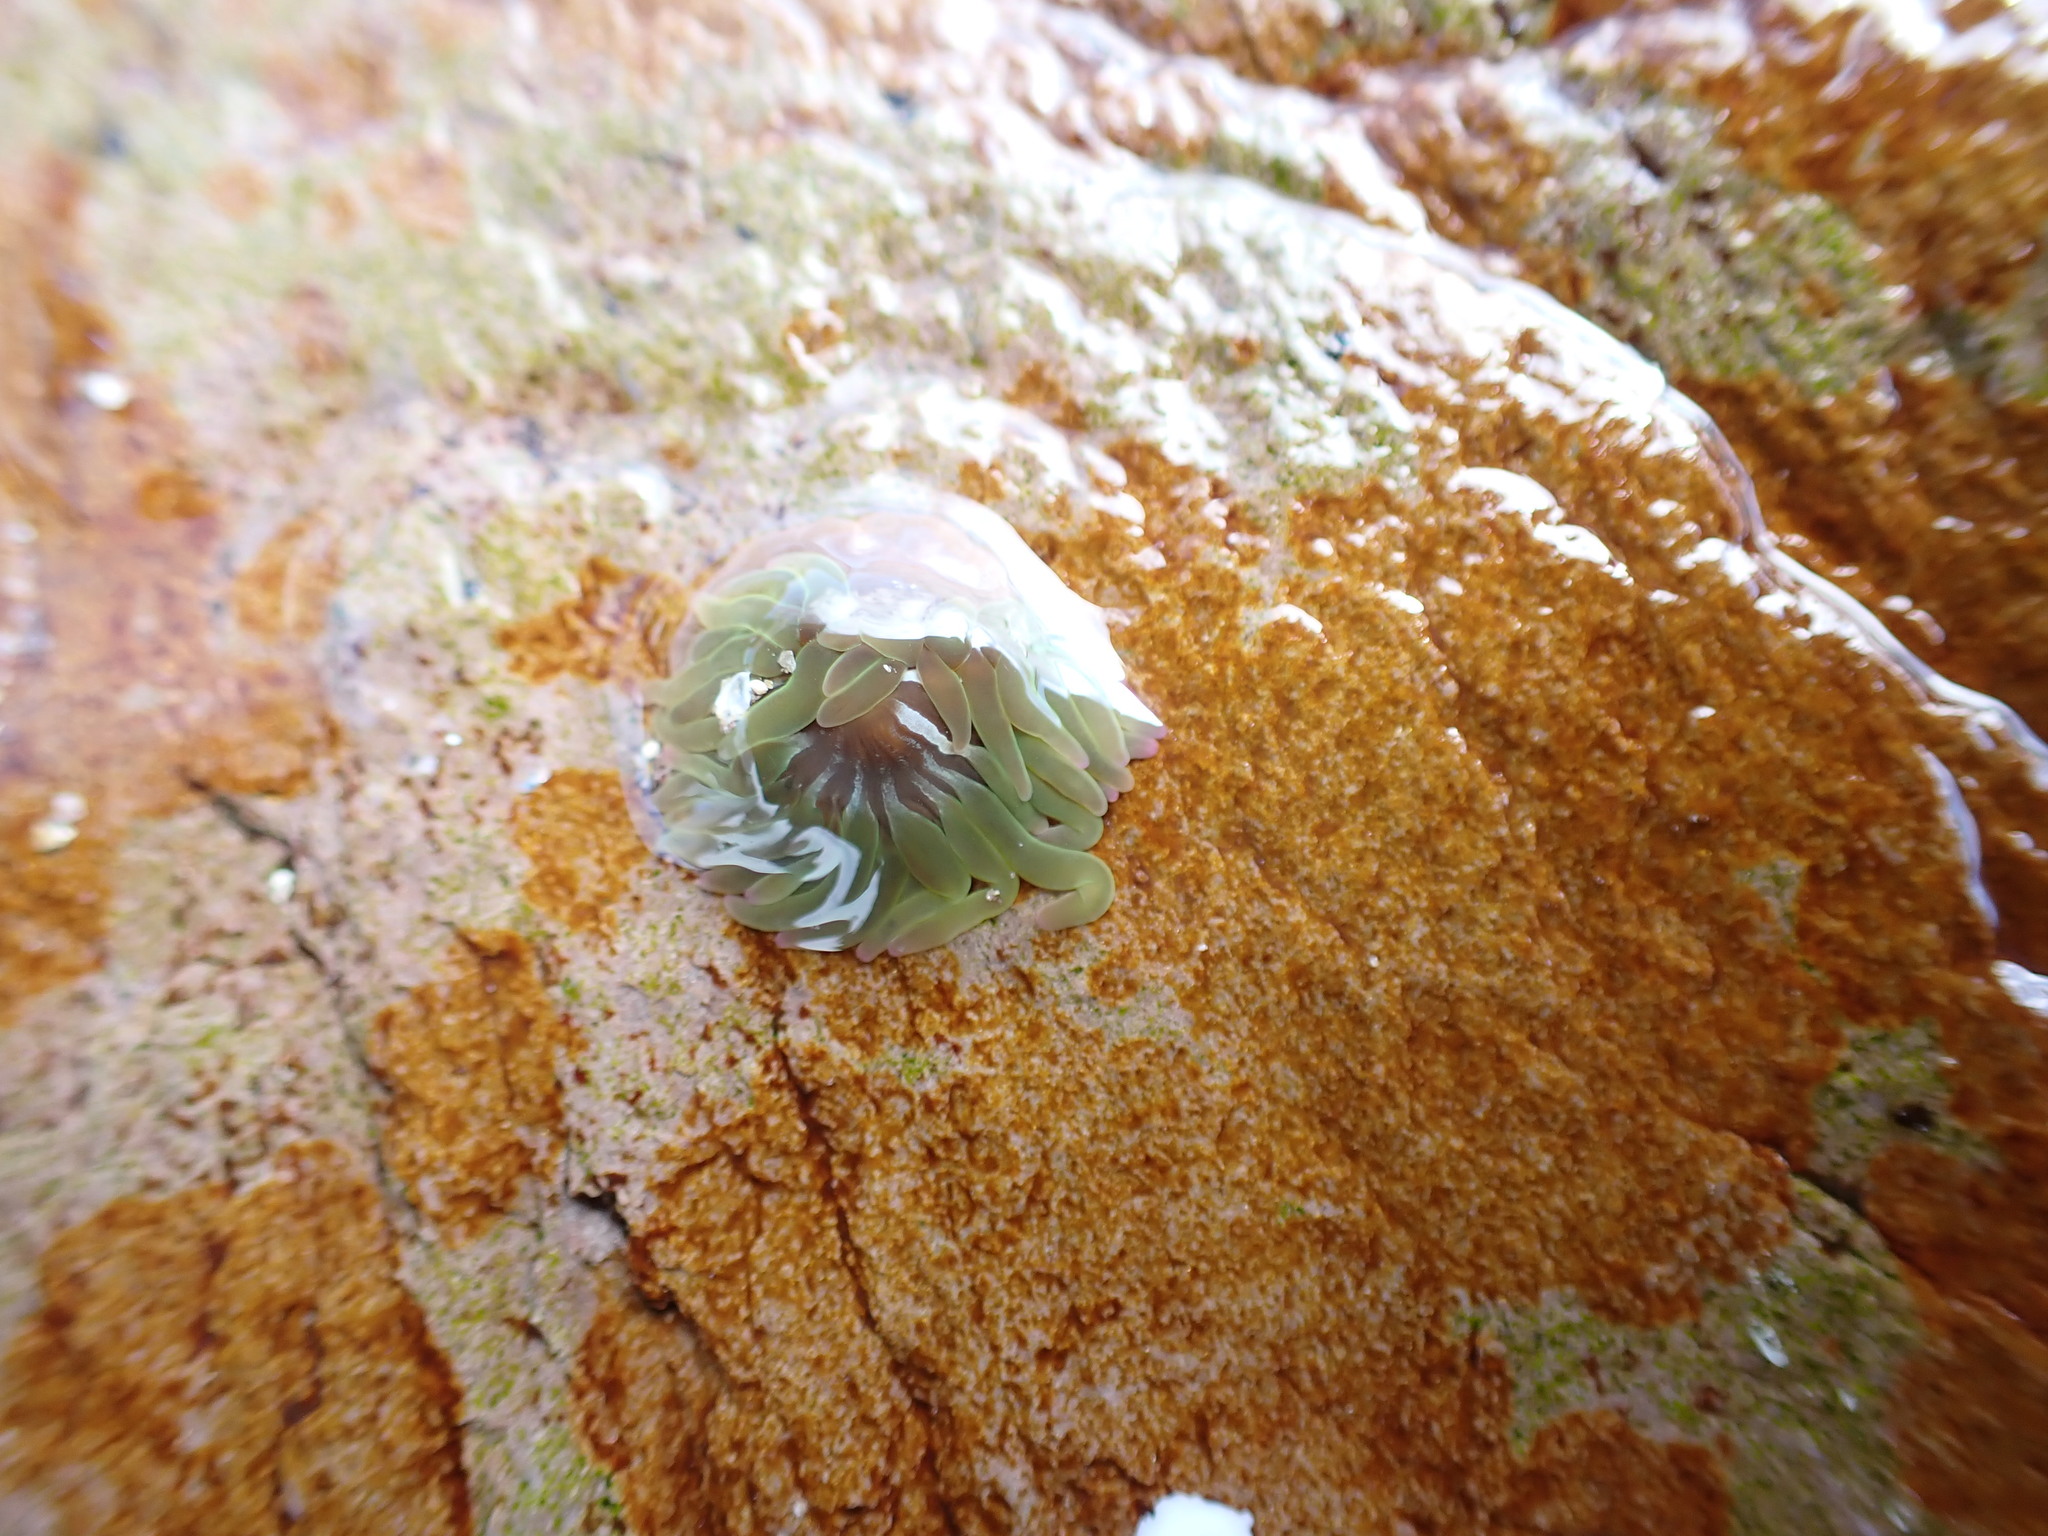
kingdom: Animalia
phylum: Cnidaria
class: Anthozoa
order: Actiniaria
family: Actiniidae
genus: Anemonia
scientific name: Anemonia viridis
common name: Snakelocks anemone
